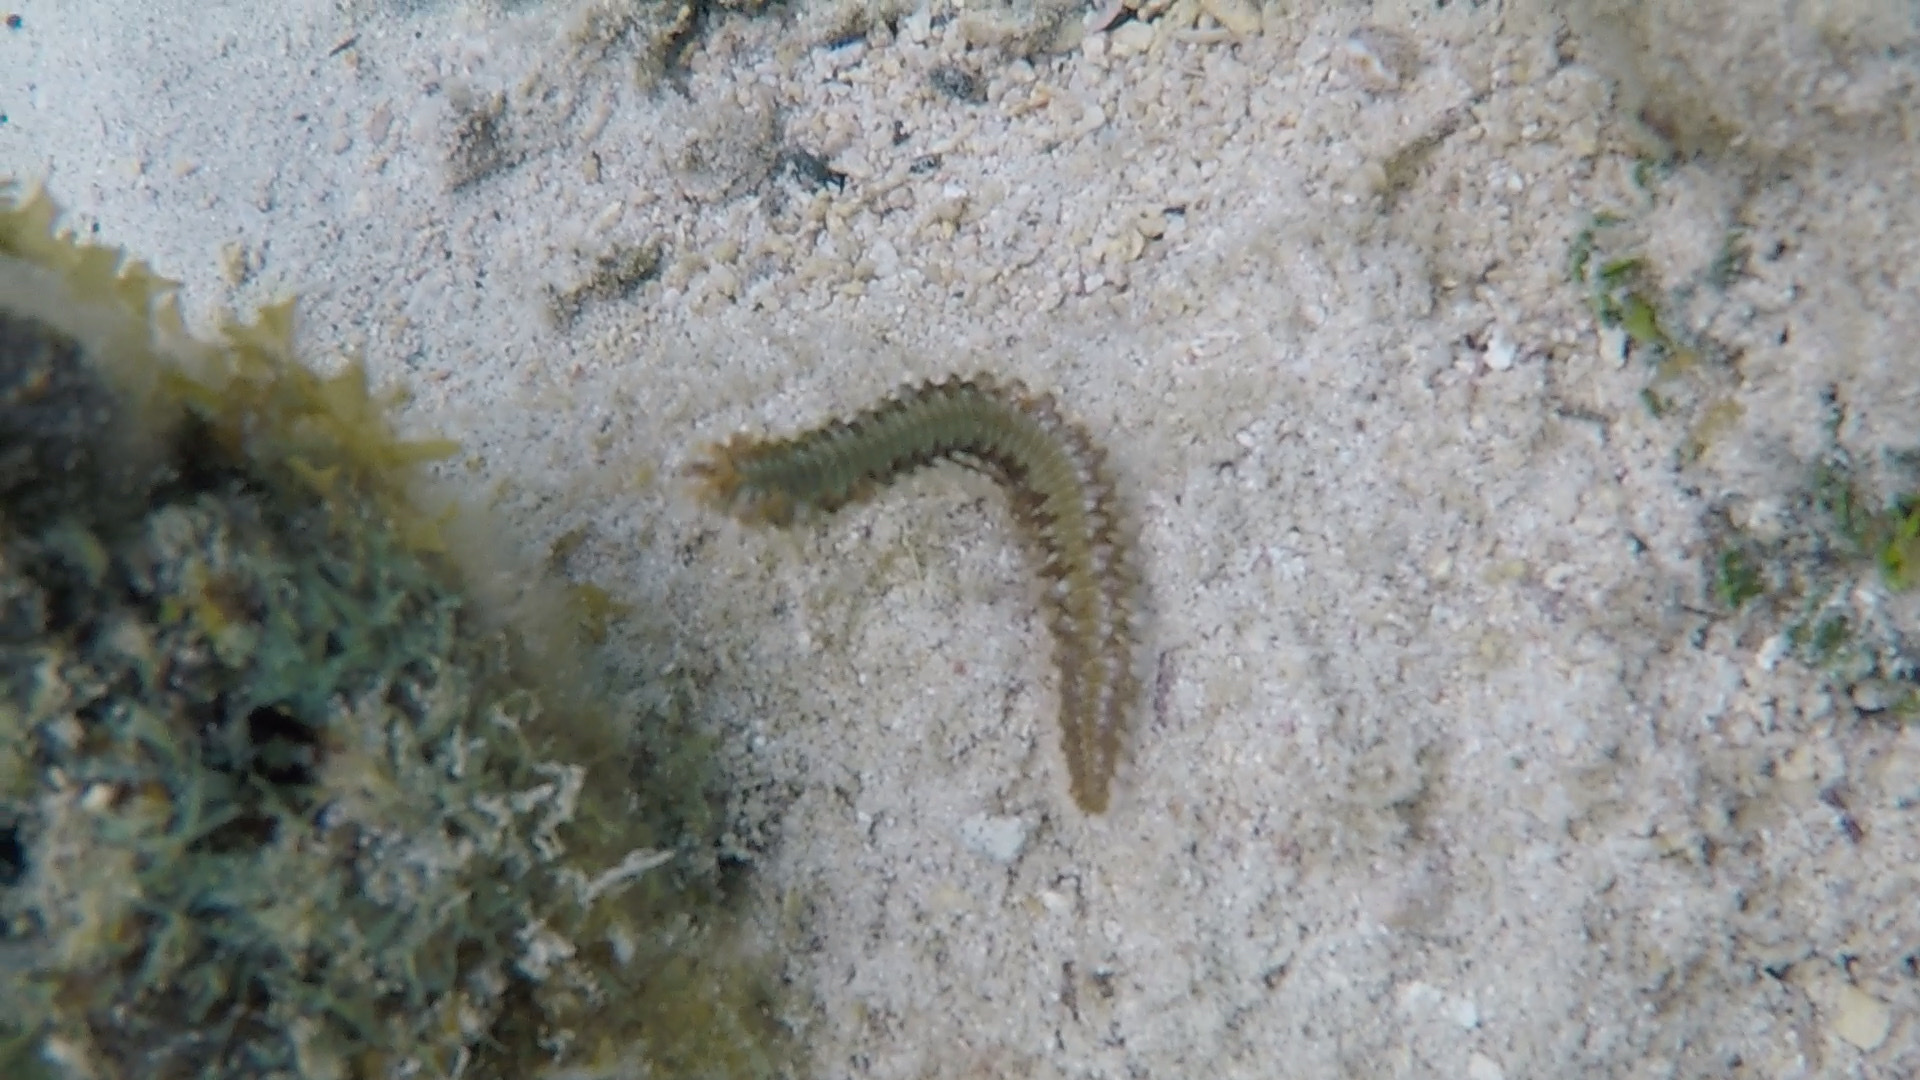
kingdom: Animalia
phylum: Annelida
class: Polychaeta
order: Amphinomida
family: Amphinomidae
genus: Hermodice
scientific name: Hermodice carunculata
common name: Bearded fireworm
